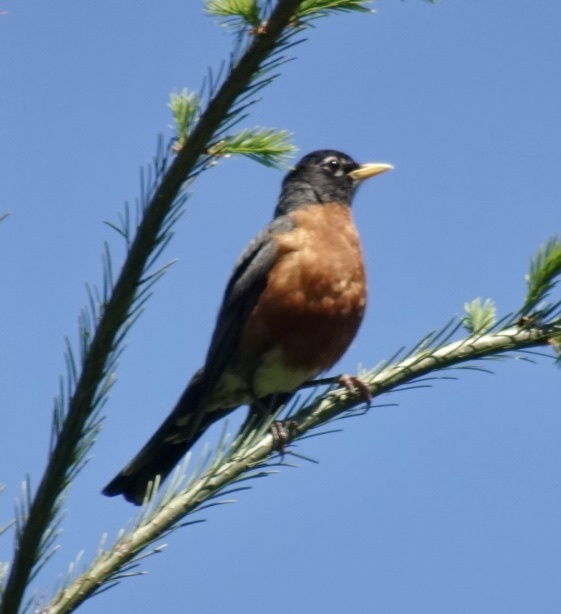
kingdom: Animalia
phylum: Chordata
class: Aves
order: Passeriformes
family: Turdidae
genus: Turdus
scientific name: Turdus migratorius
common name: American robin
